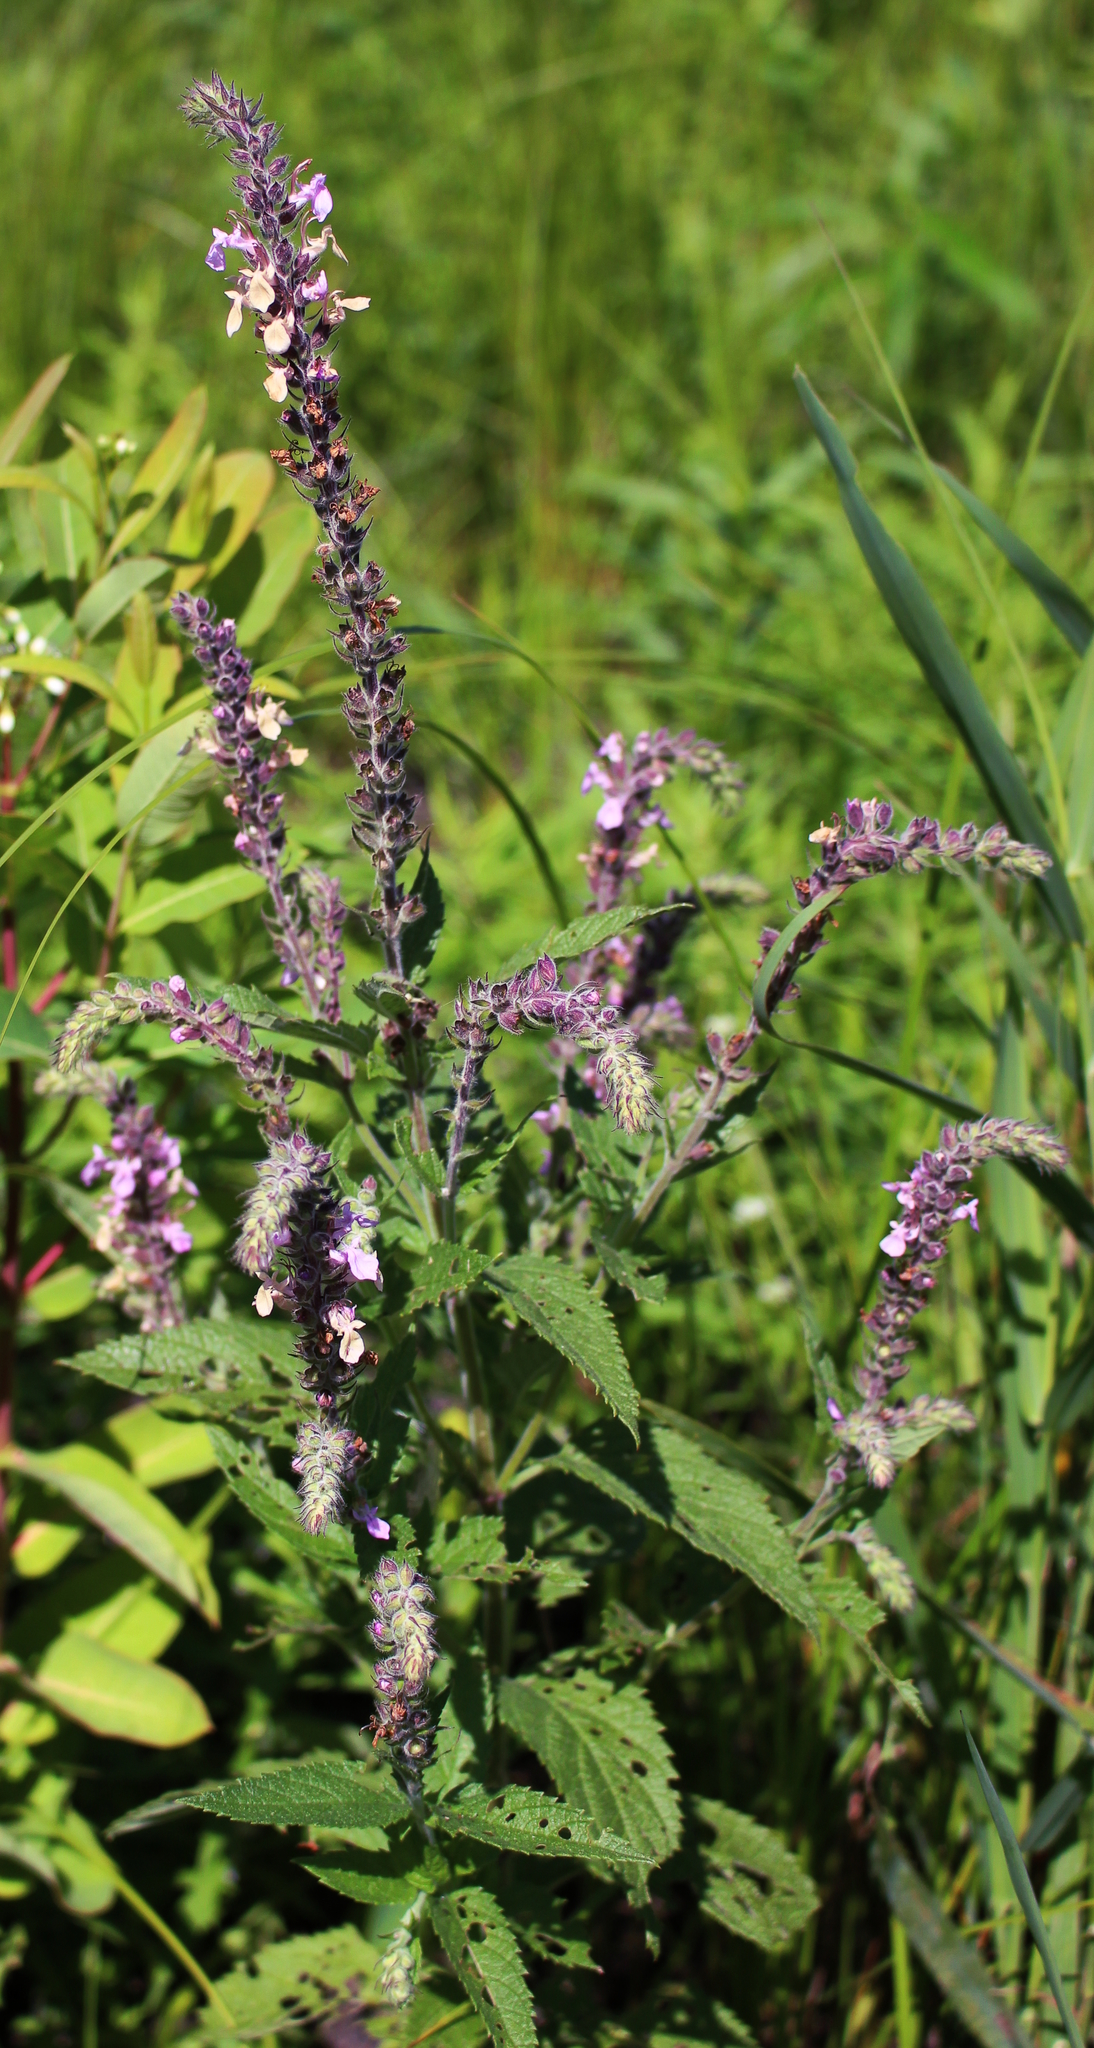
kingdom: Plantae
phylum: Tracheophyta
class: Magnoliopsida
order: Lamiales
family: Lamiaceae
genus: Teucrium
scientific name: Teucrium canadense
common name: American germander
